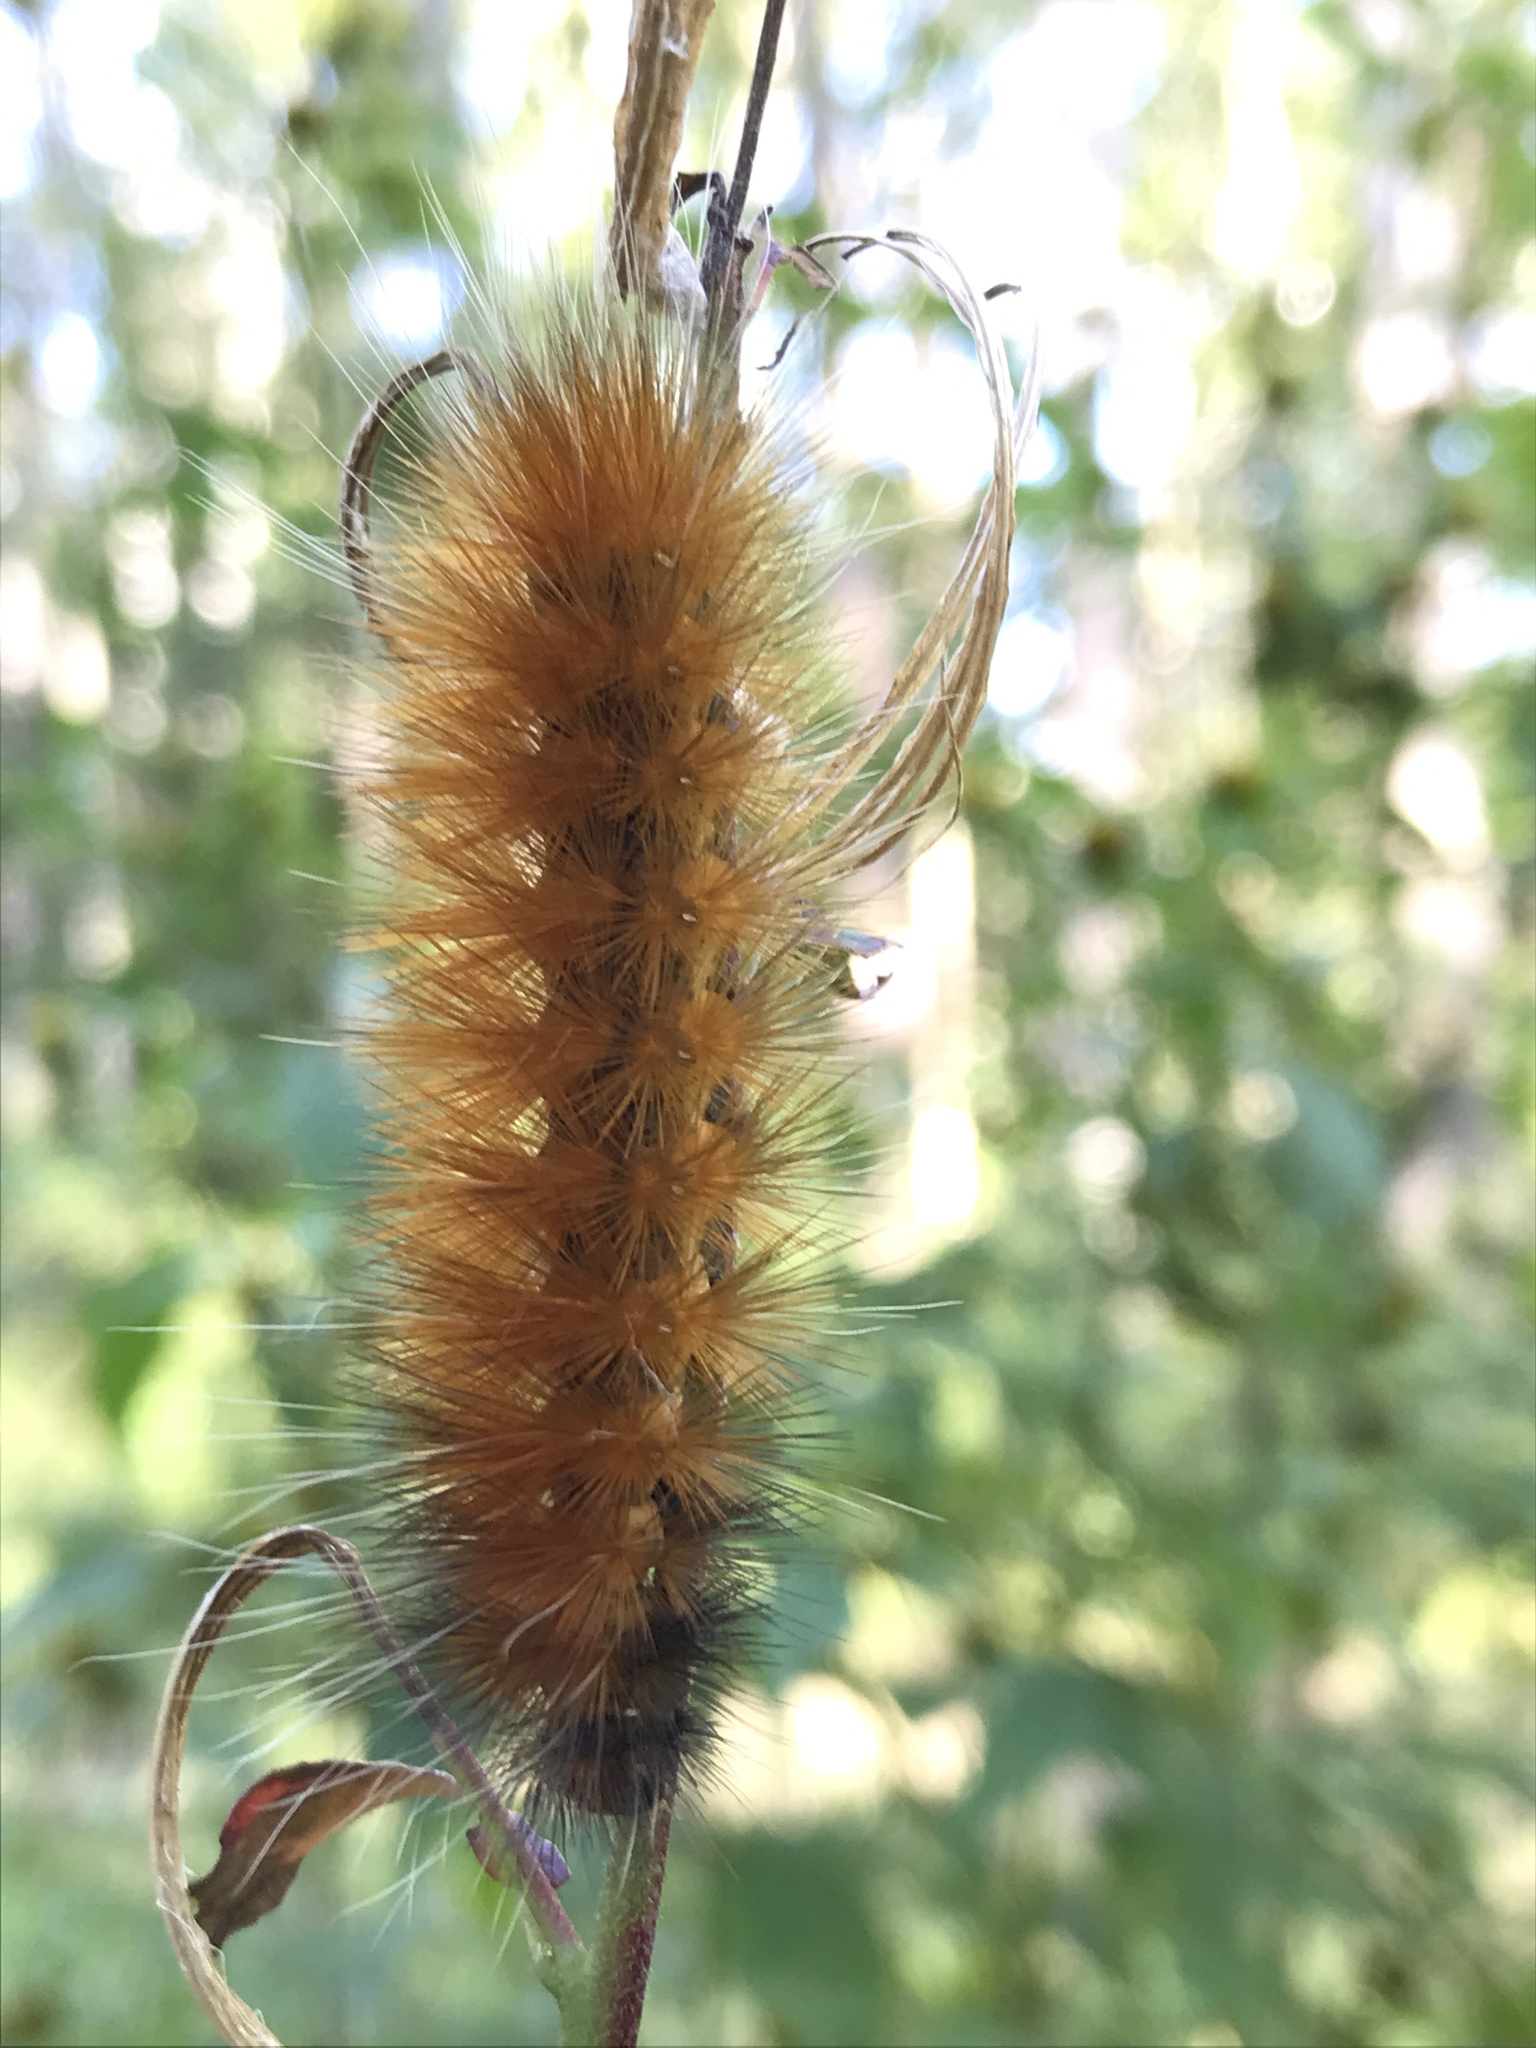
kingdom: Animalia
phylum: Arthropoda
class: Insecta
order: Lepidoptera
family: Erebidae
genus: Spilosoma
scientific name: Spilosoma virginica
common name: Virginia tiger moth
